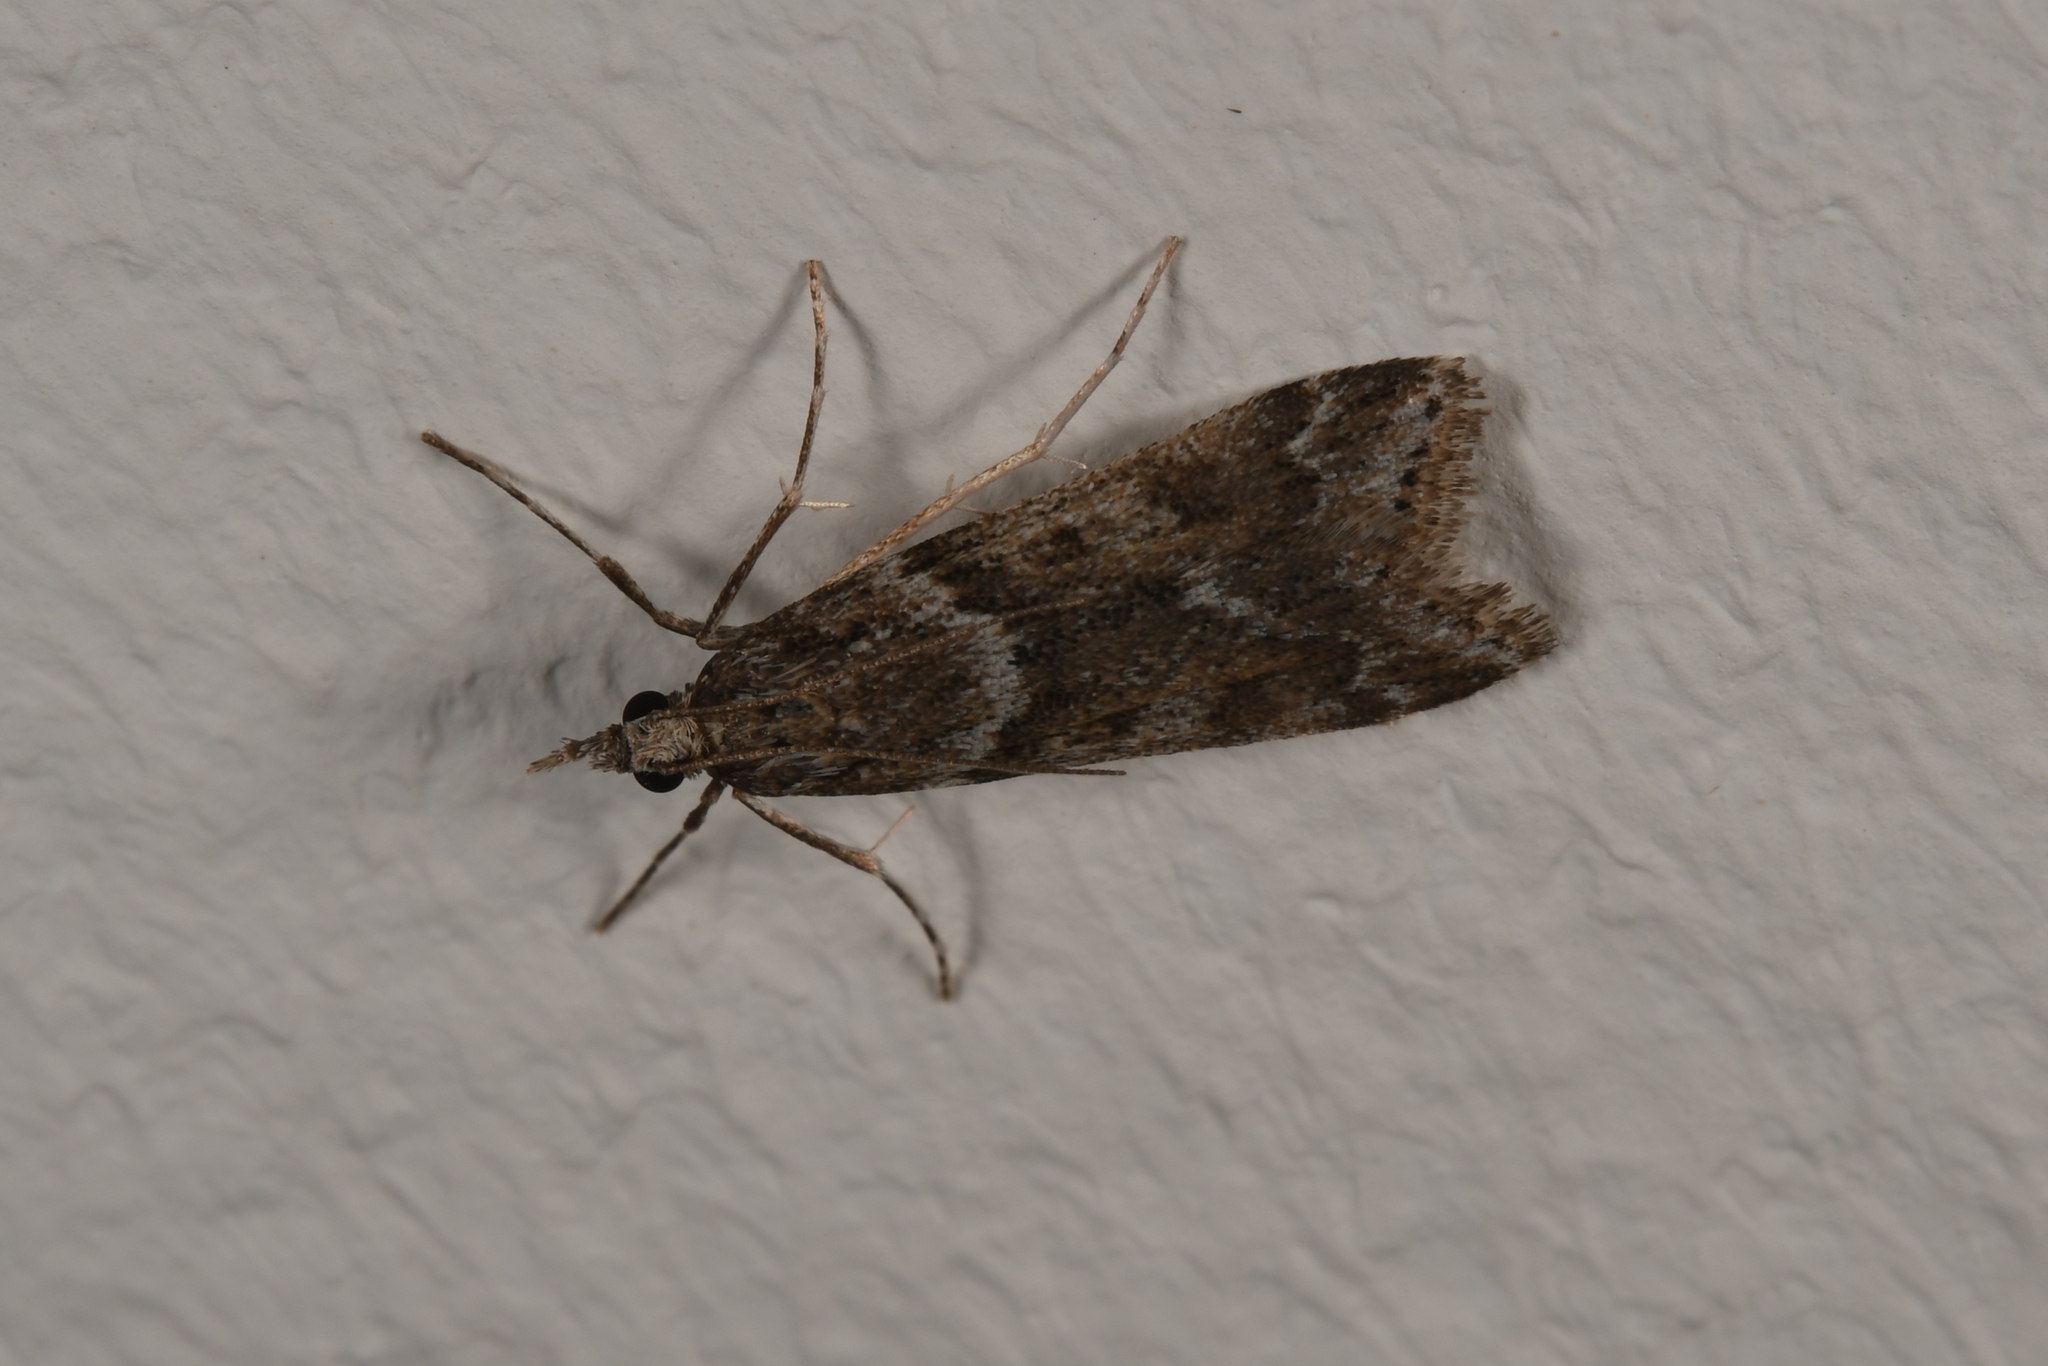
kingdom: Animalia
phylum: Arthropoda
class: Insecta
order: Lepidoptera
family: Crambidae
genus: Eudonia
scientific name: Eudonia angustea
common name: Narrow-winged grey
